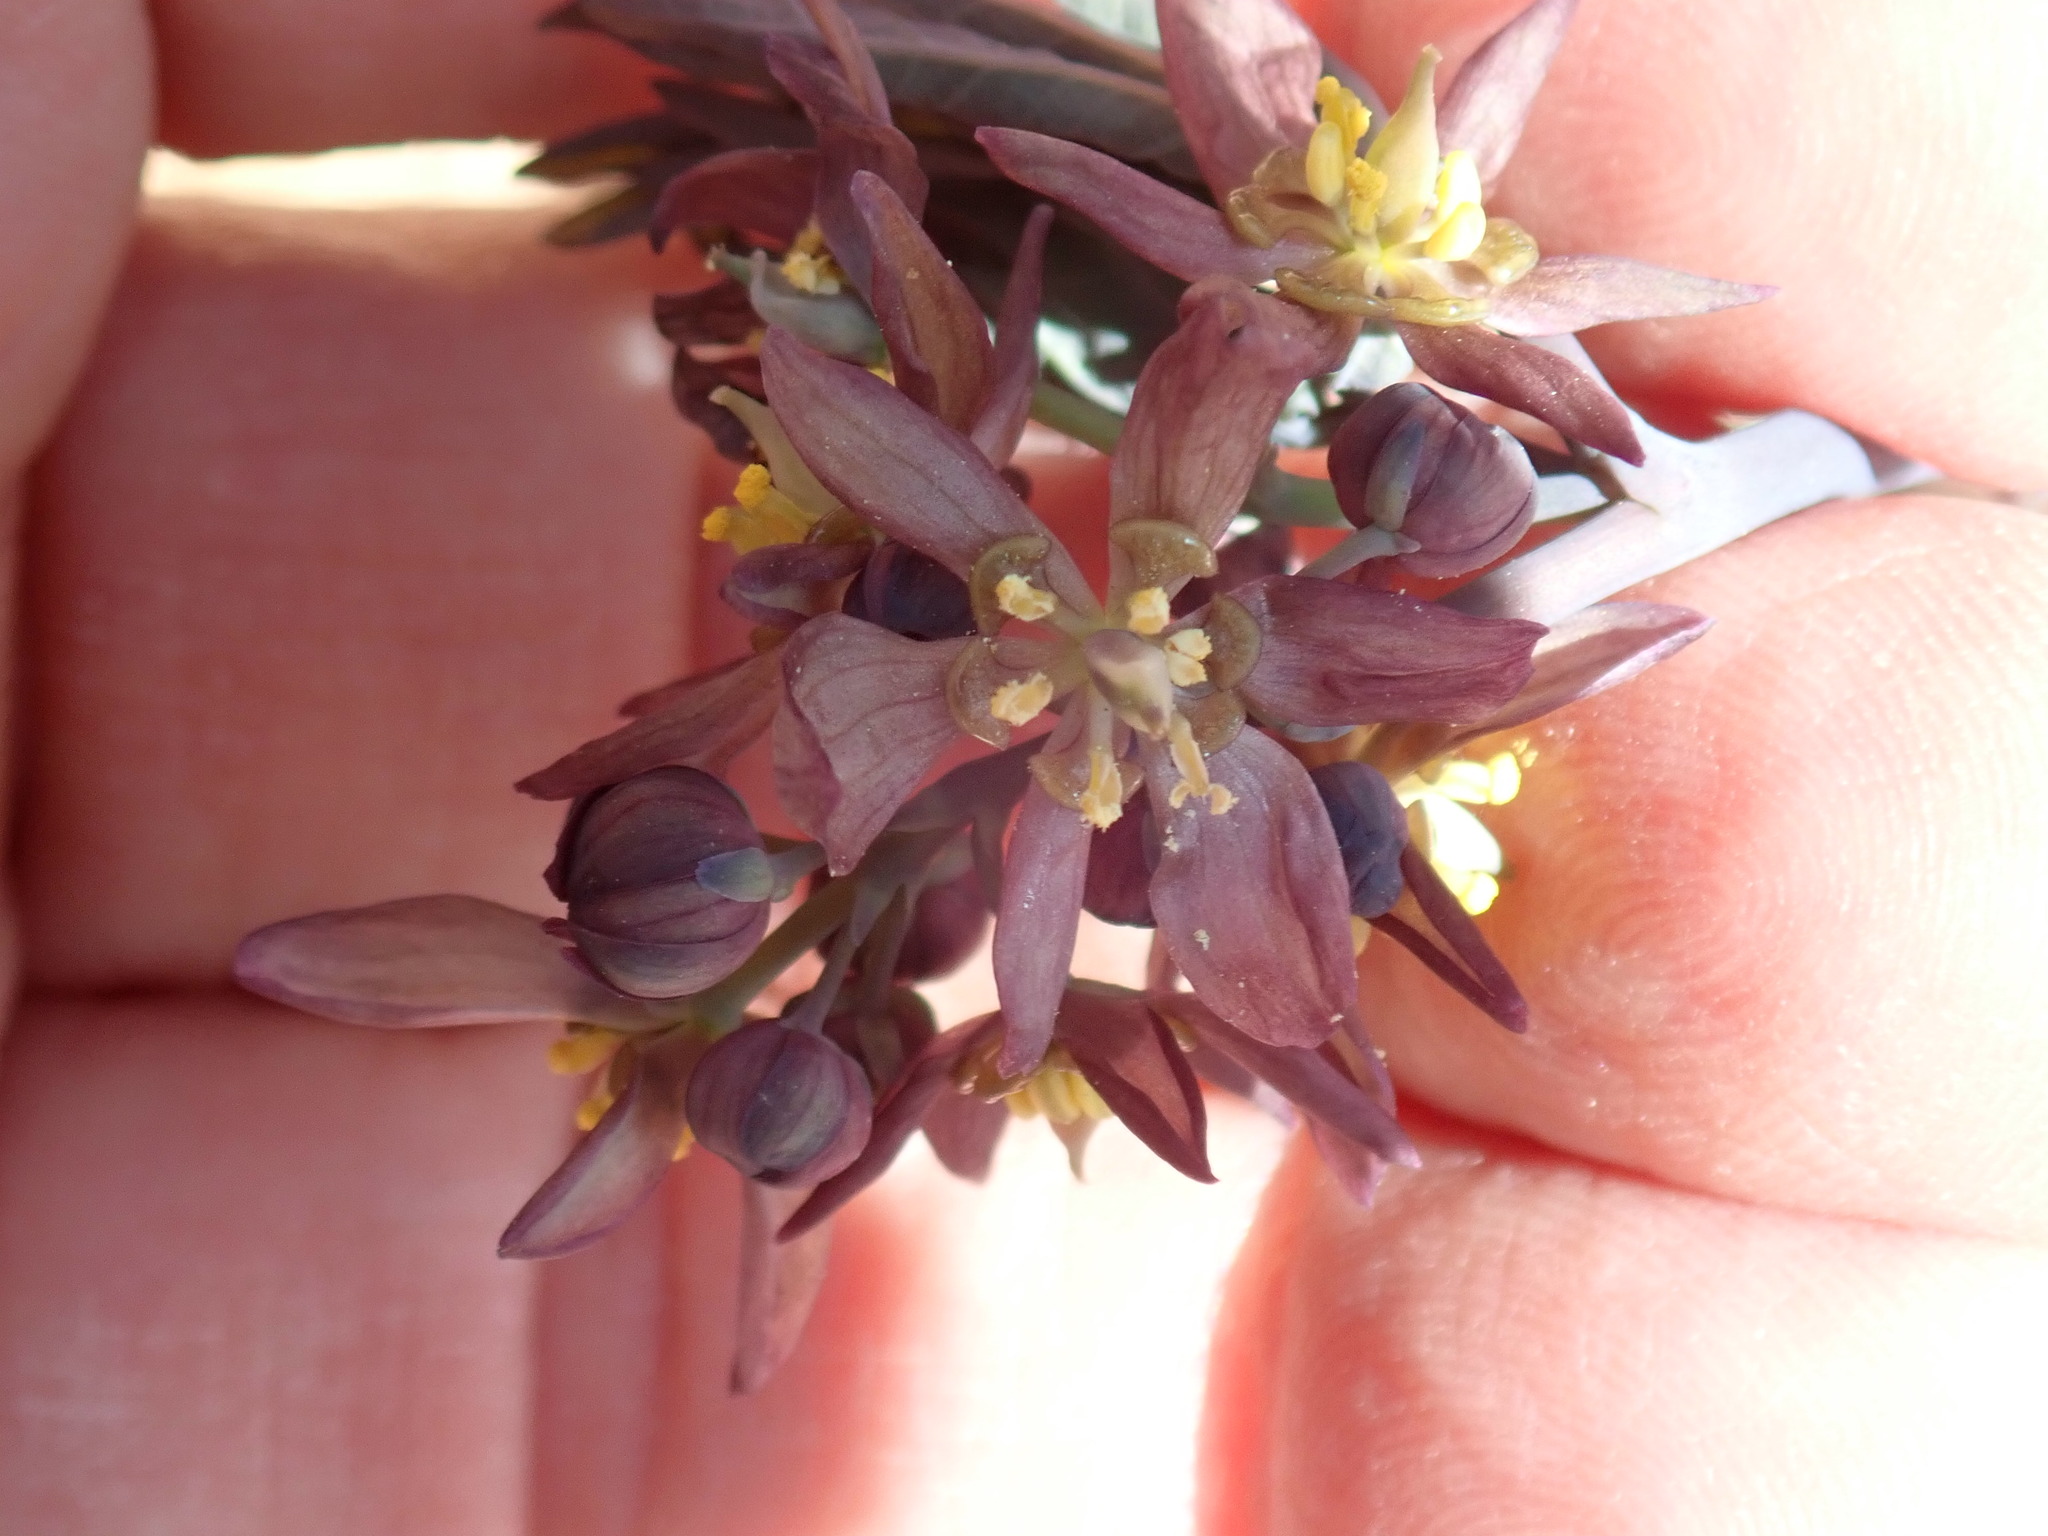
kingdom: Plantae
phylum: Tracheophyta
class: Magnoliopsida
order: Ranunculales
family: Berberidaceae
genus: Caulophyllum
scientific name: Caulophyllum giganteum
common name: Blue cohosh
